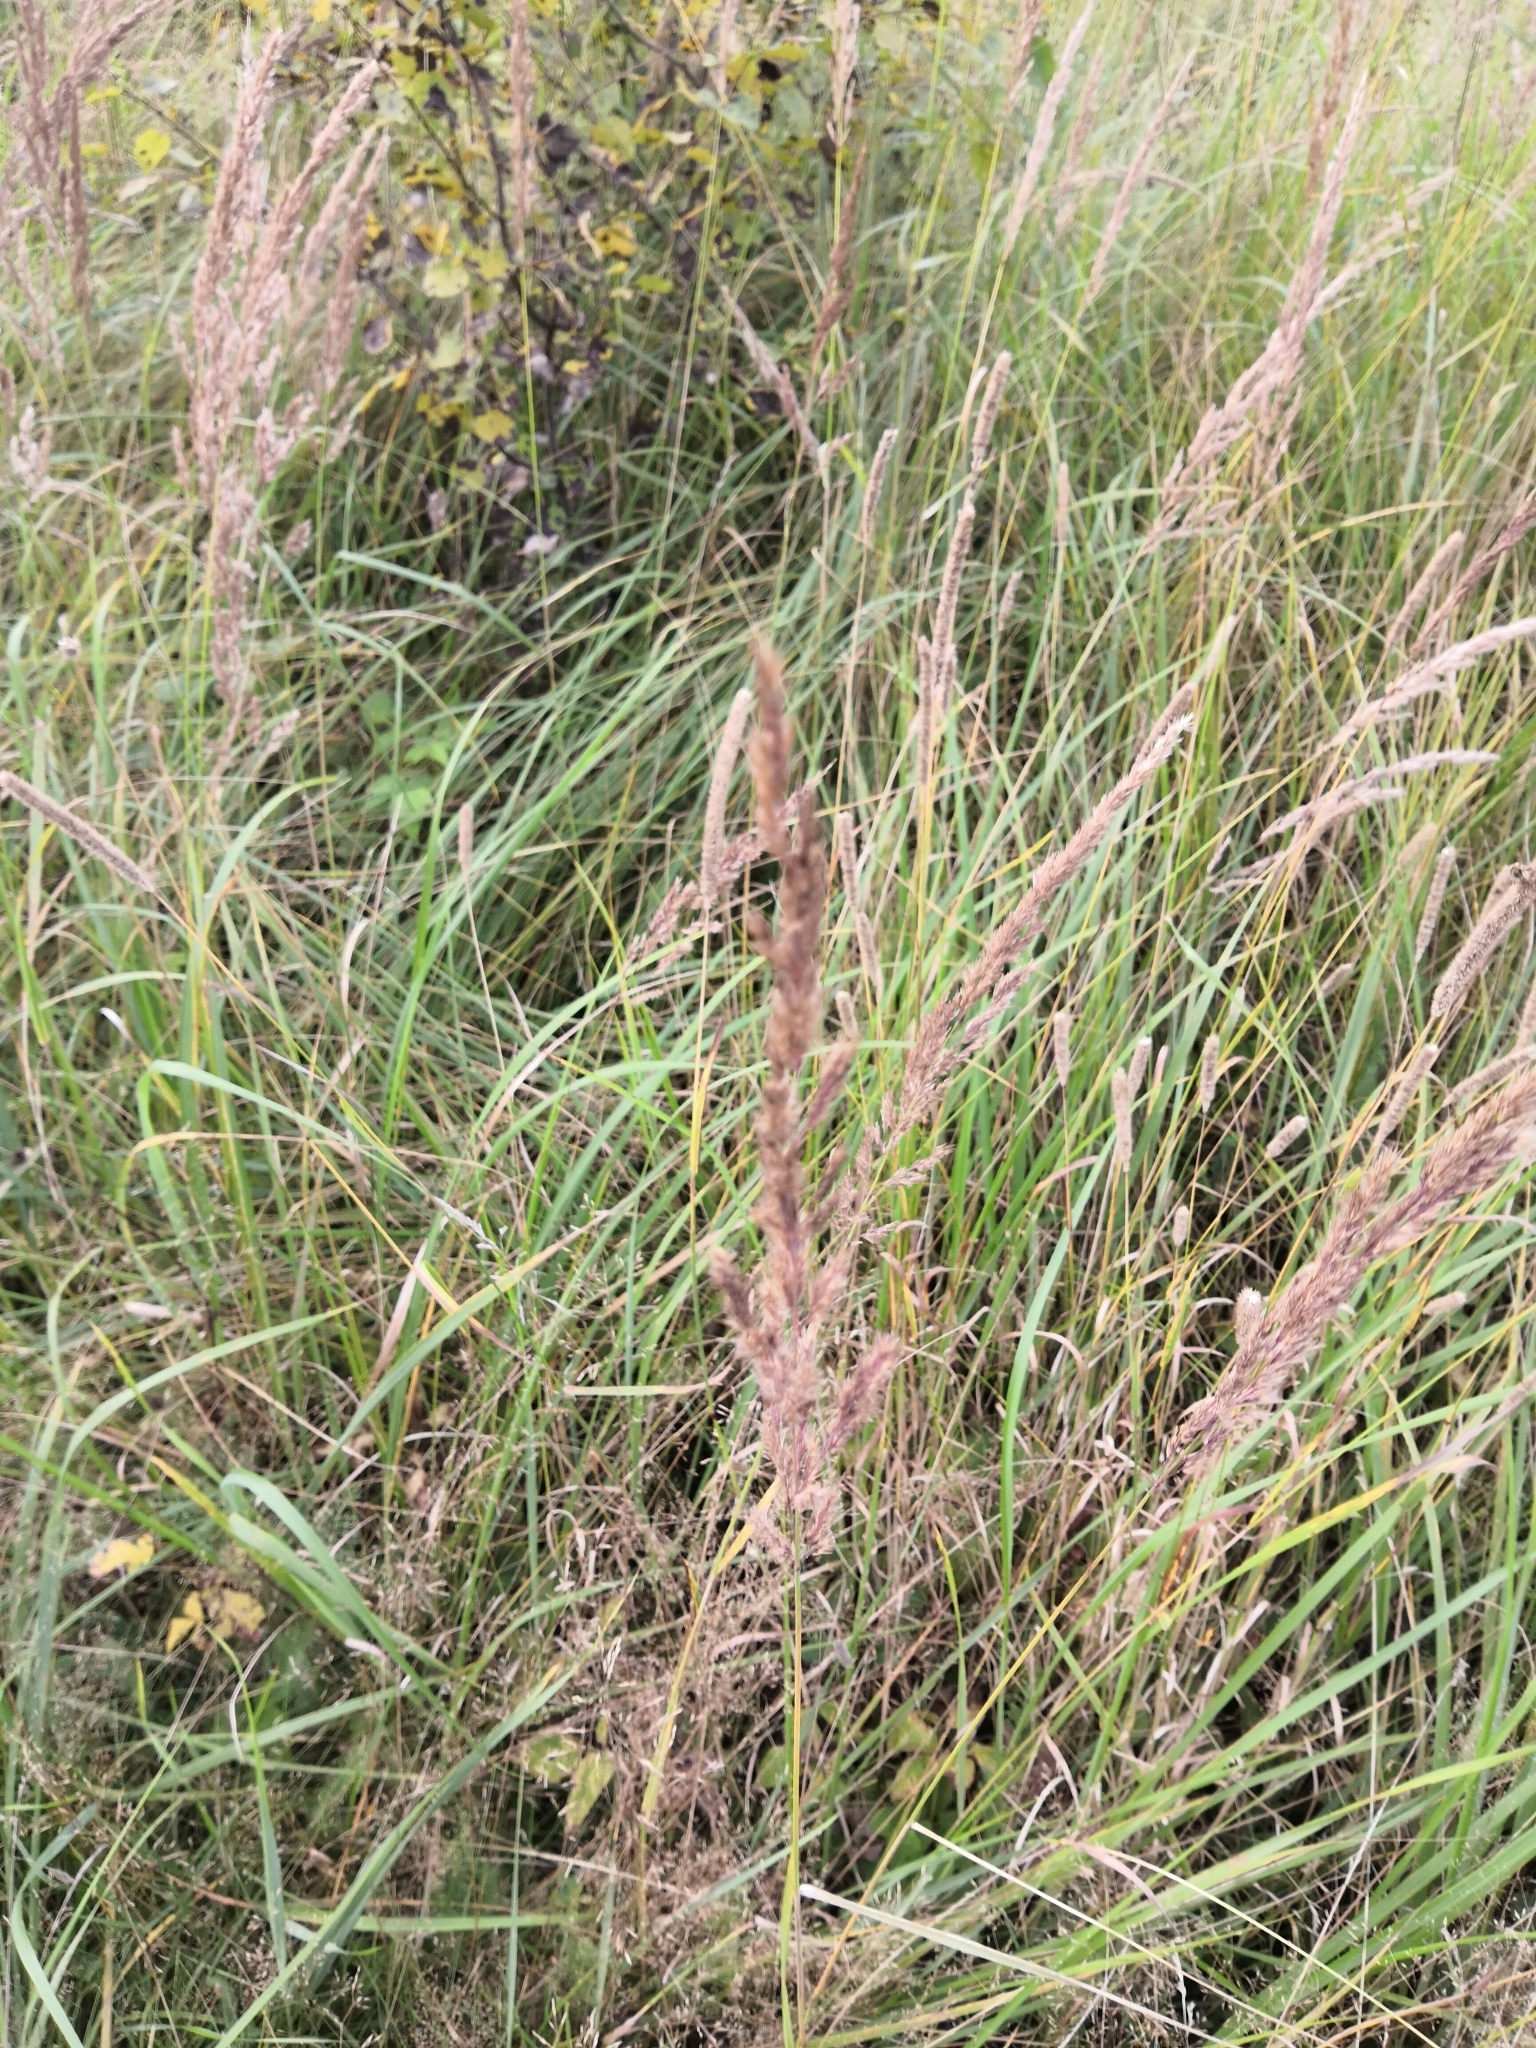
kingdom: Plantae
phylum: Tracheophyta
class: Liliopsida
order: Poales
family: Poaceae
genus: Calamagrostis
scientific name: Calamagrostis epigejos
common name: Wood small-reed
